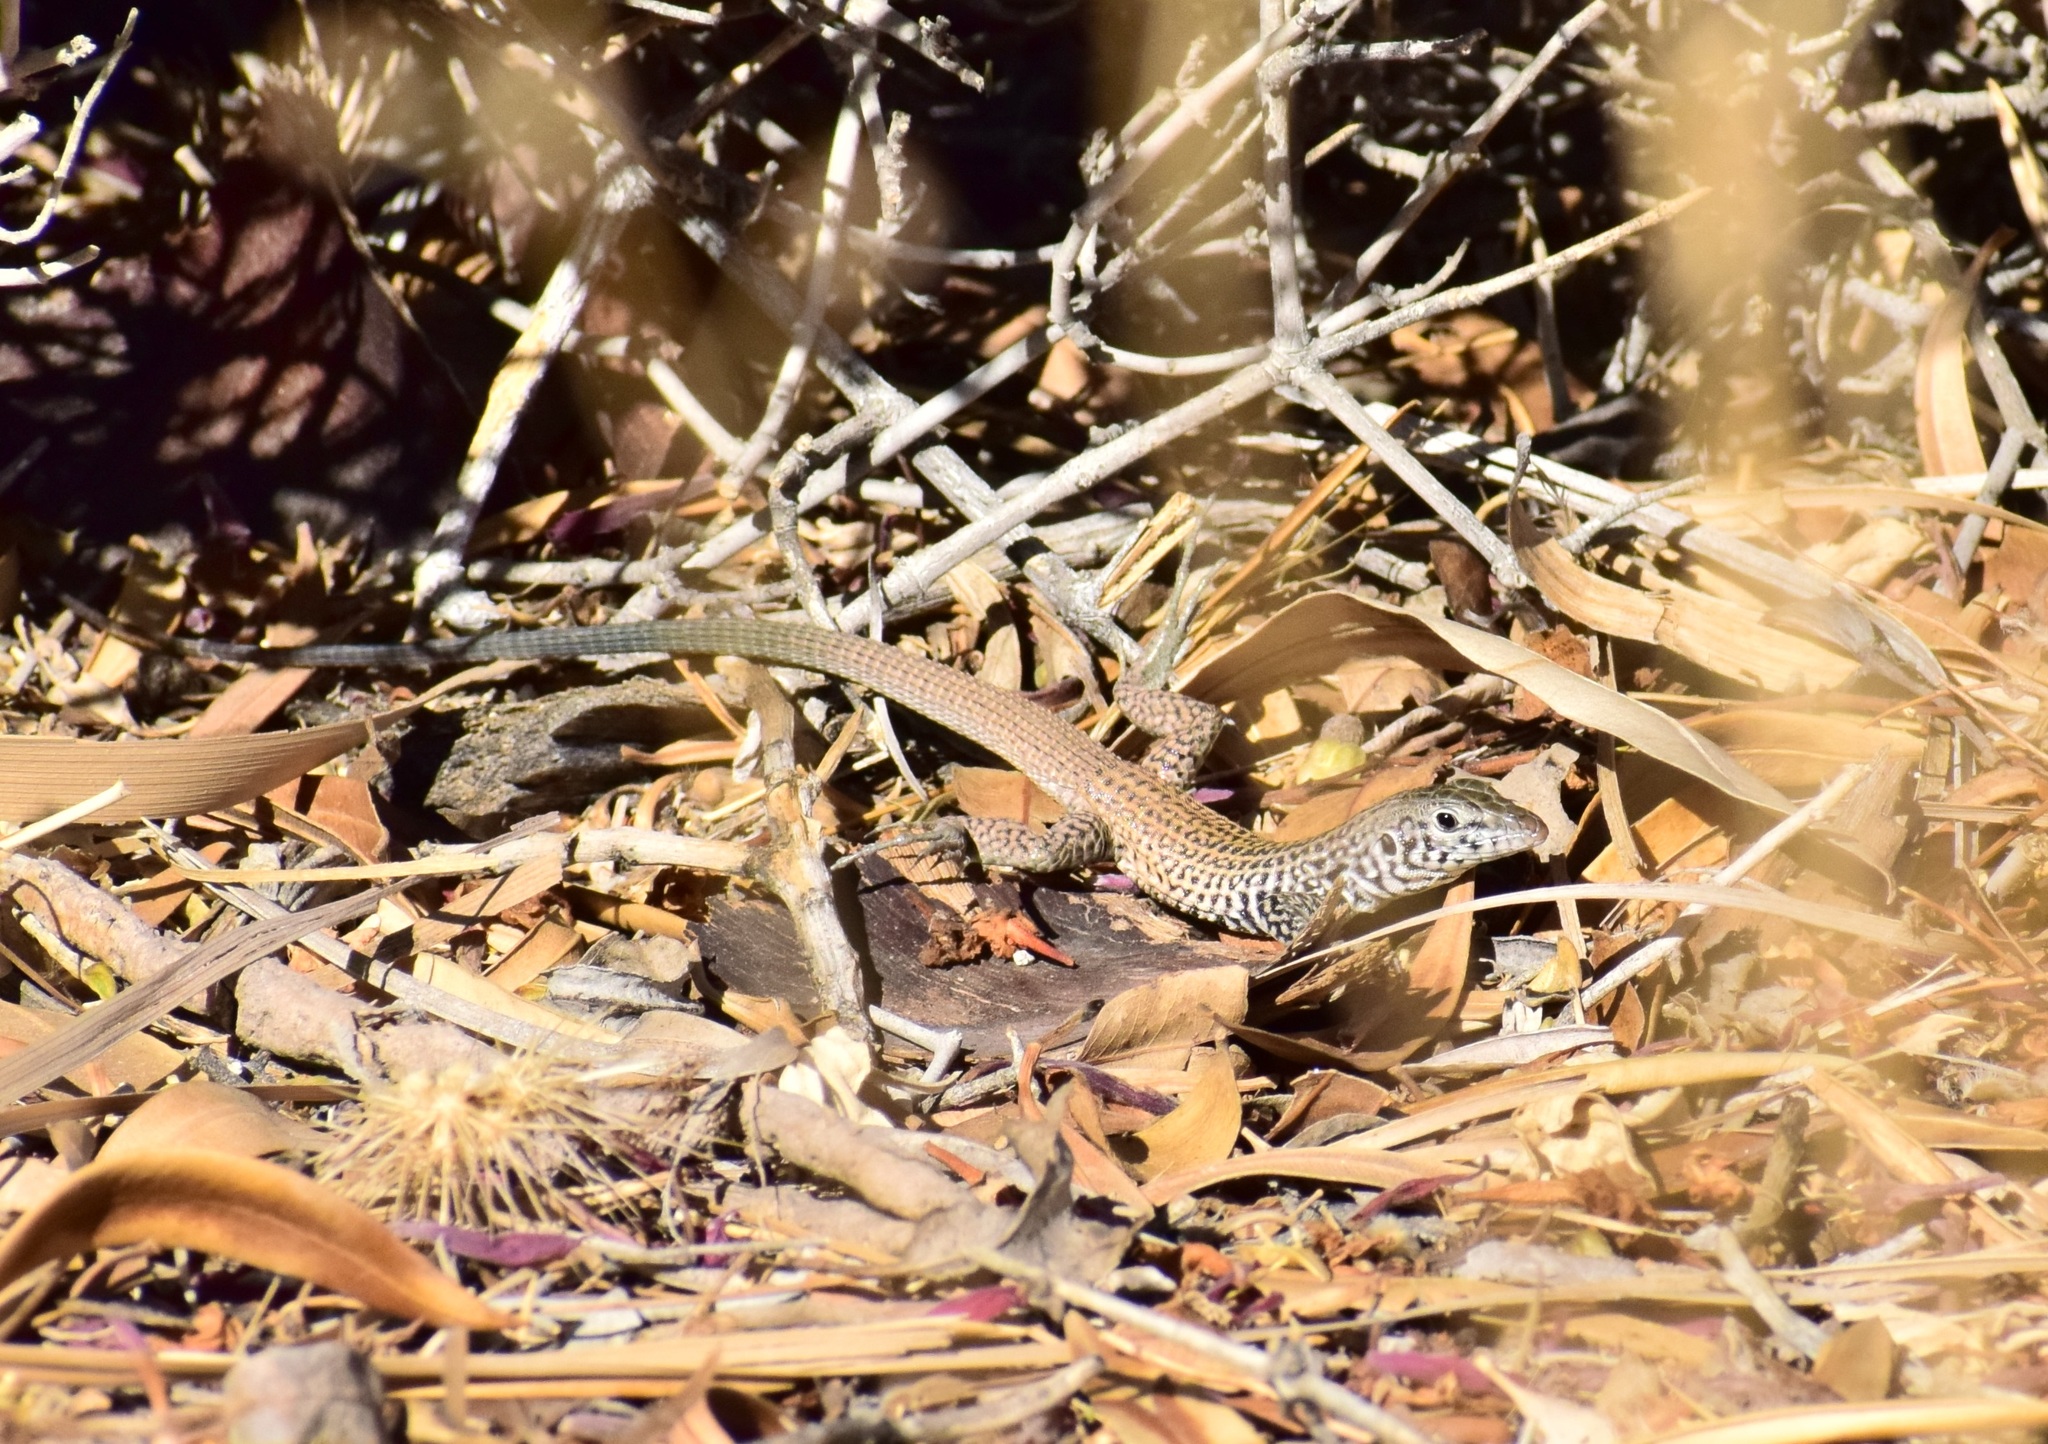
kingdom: Animalia
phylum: Chordata
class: Squamata
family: Teiidae
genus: Aspidoscelis
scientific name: Aspidoscelis tigris
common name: Tiger whiptail
